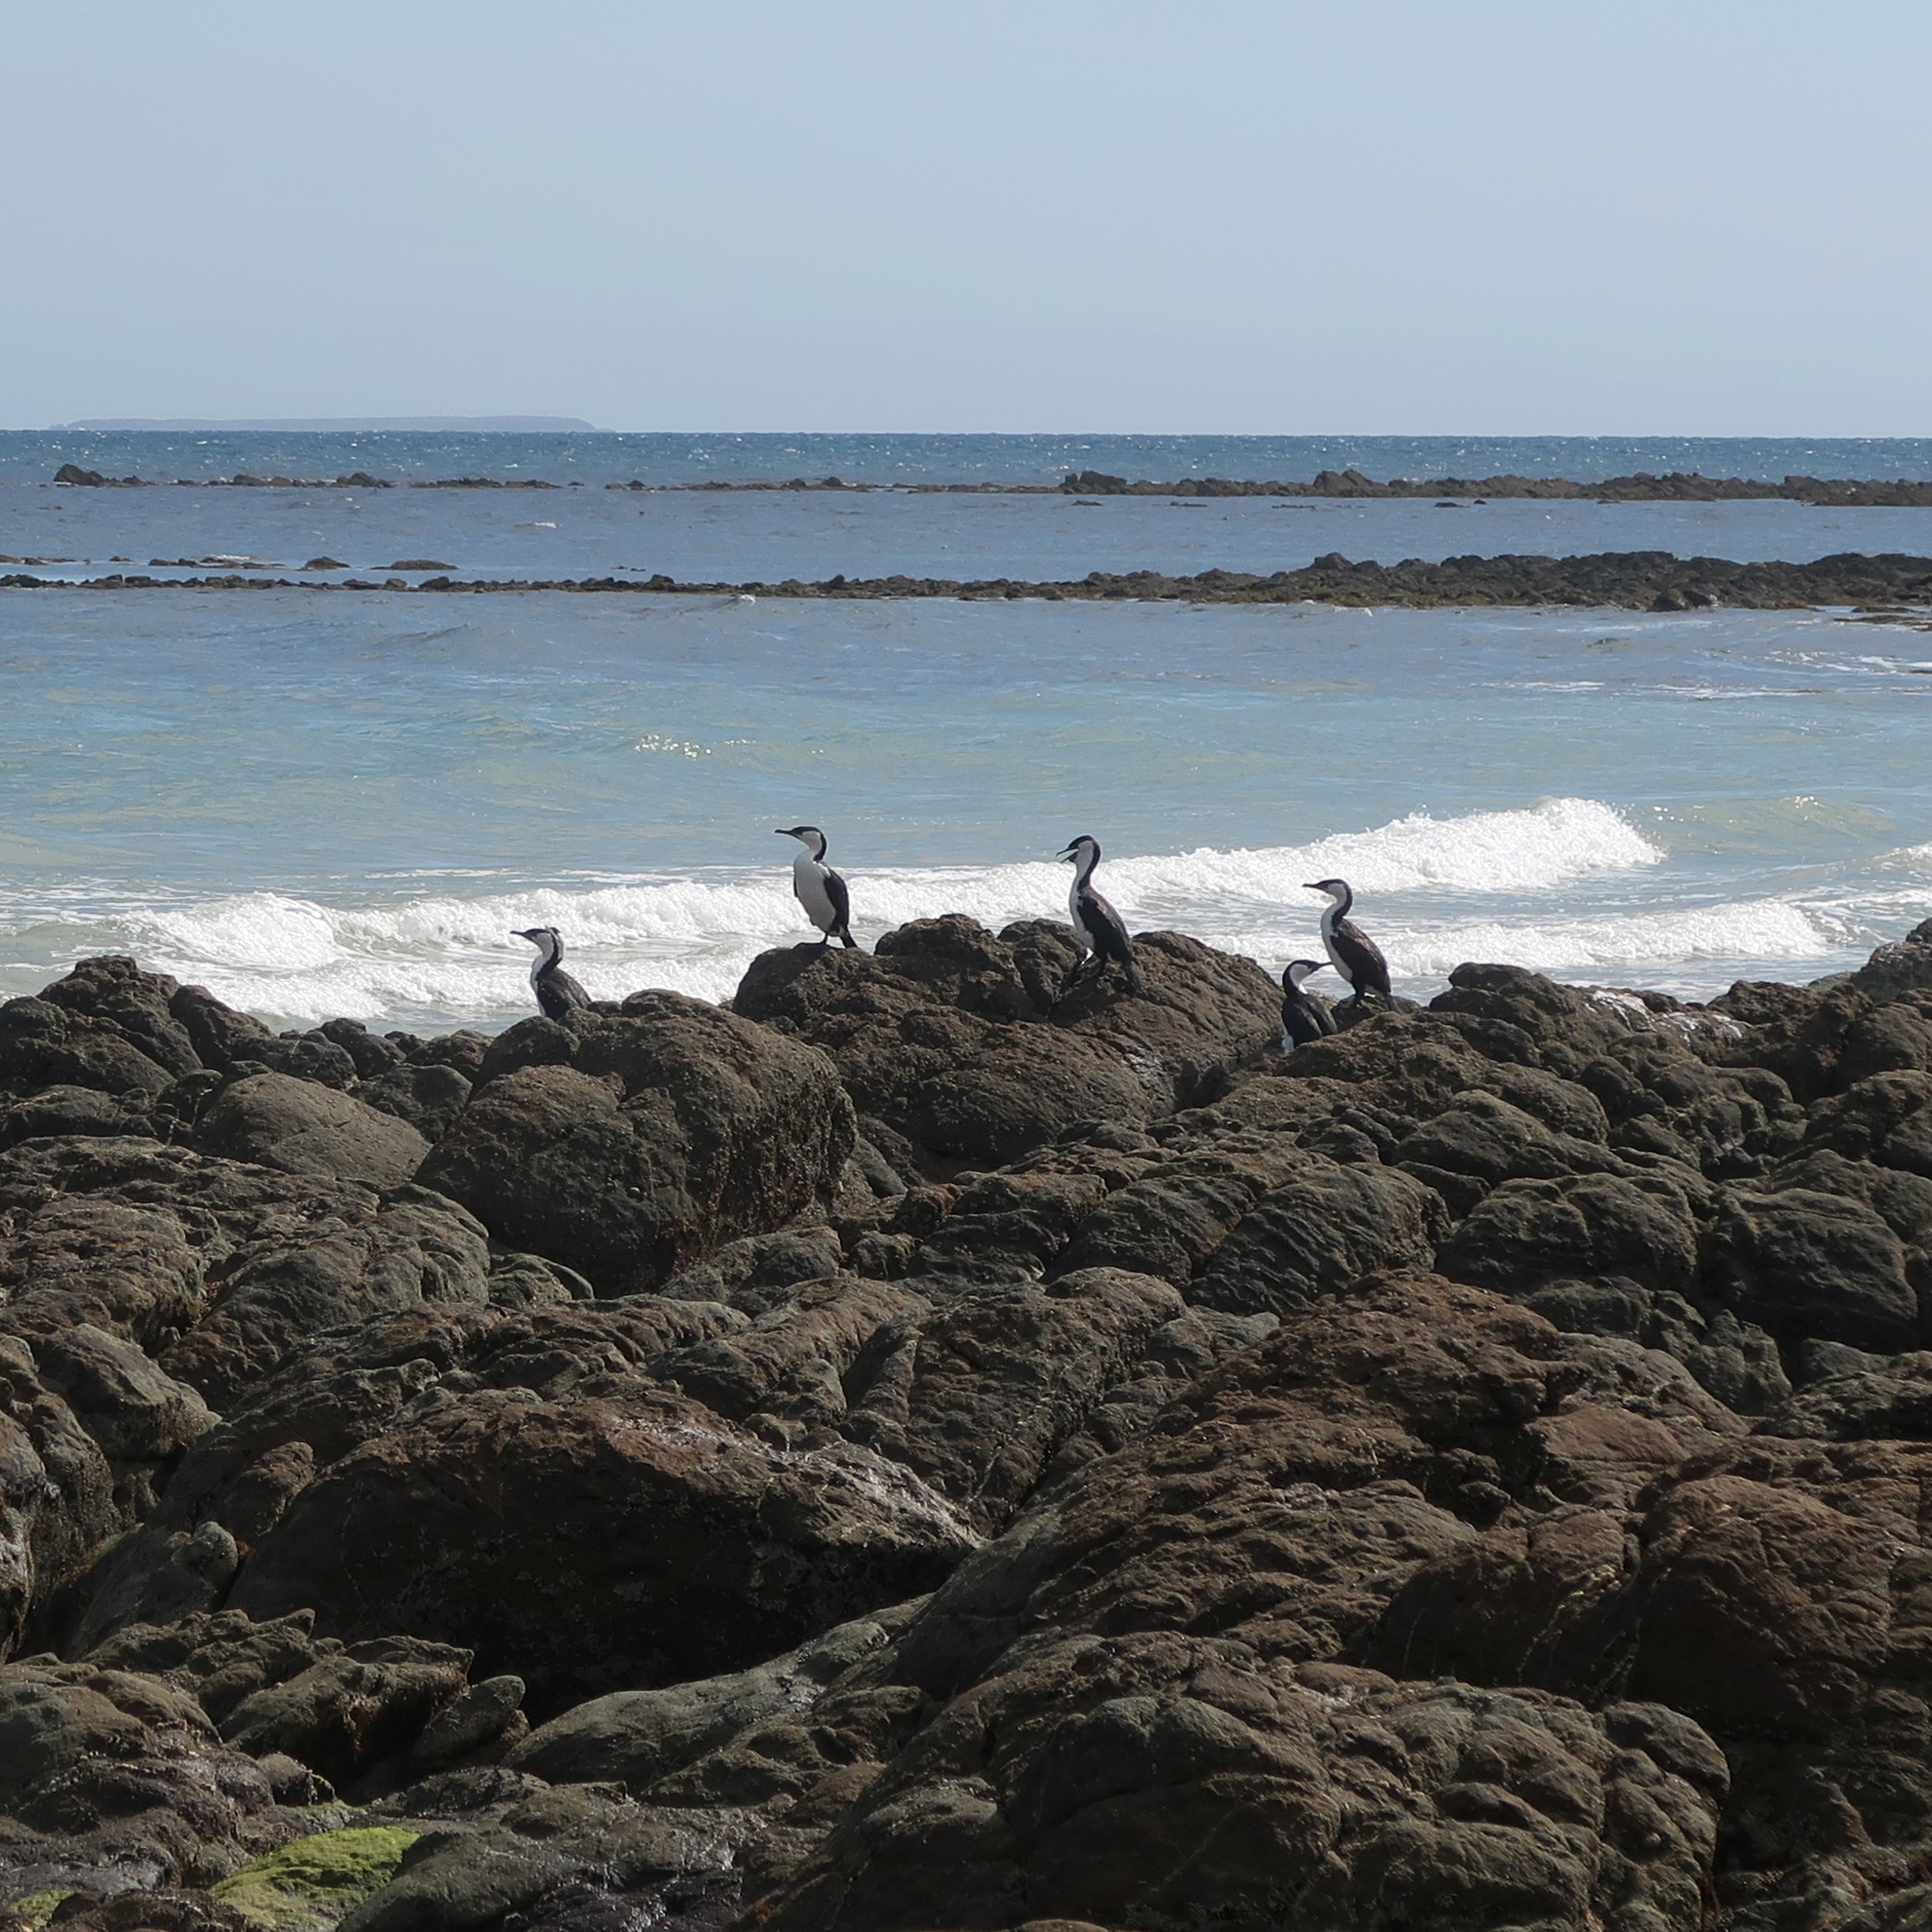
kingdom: Animalia
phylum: Chordata
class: Aves
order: Suliformes
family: Phalacrocoracidae
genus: Phalacrocorax
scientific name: Phalacrocorax fuscescens
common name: Black-faced cormorant
